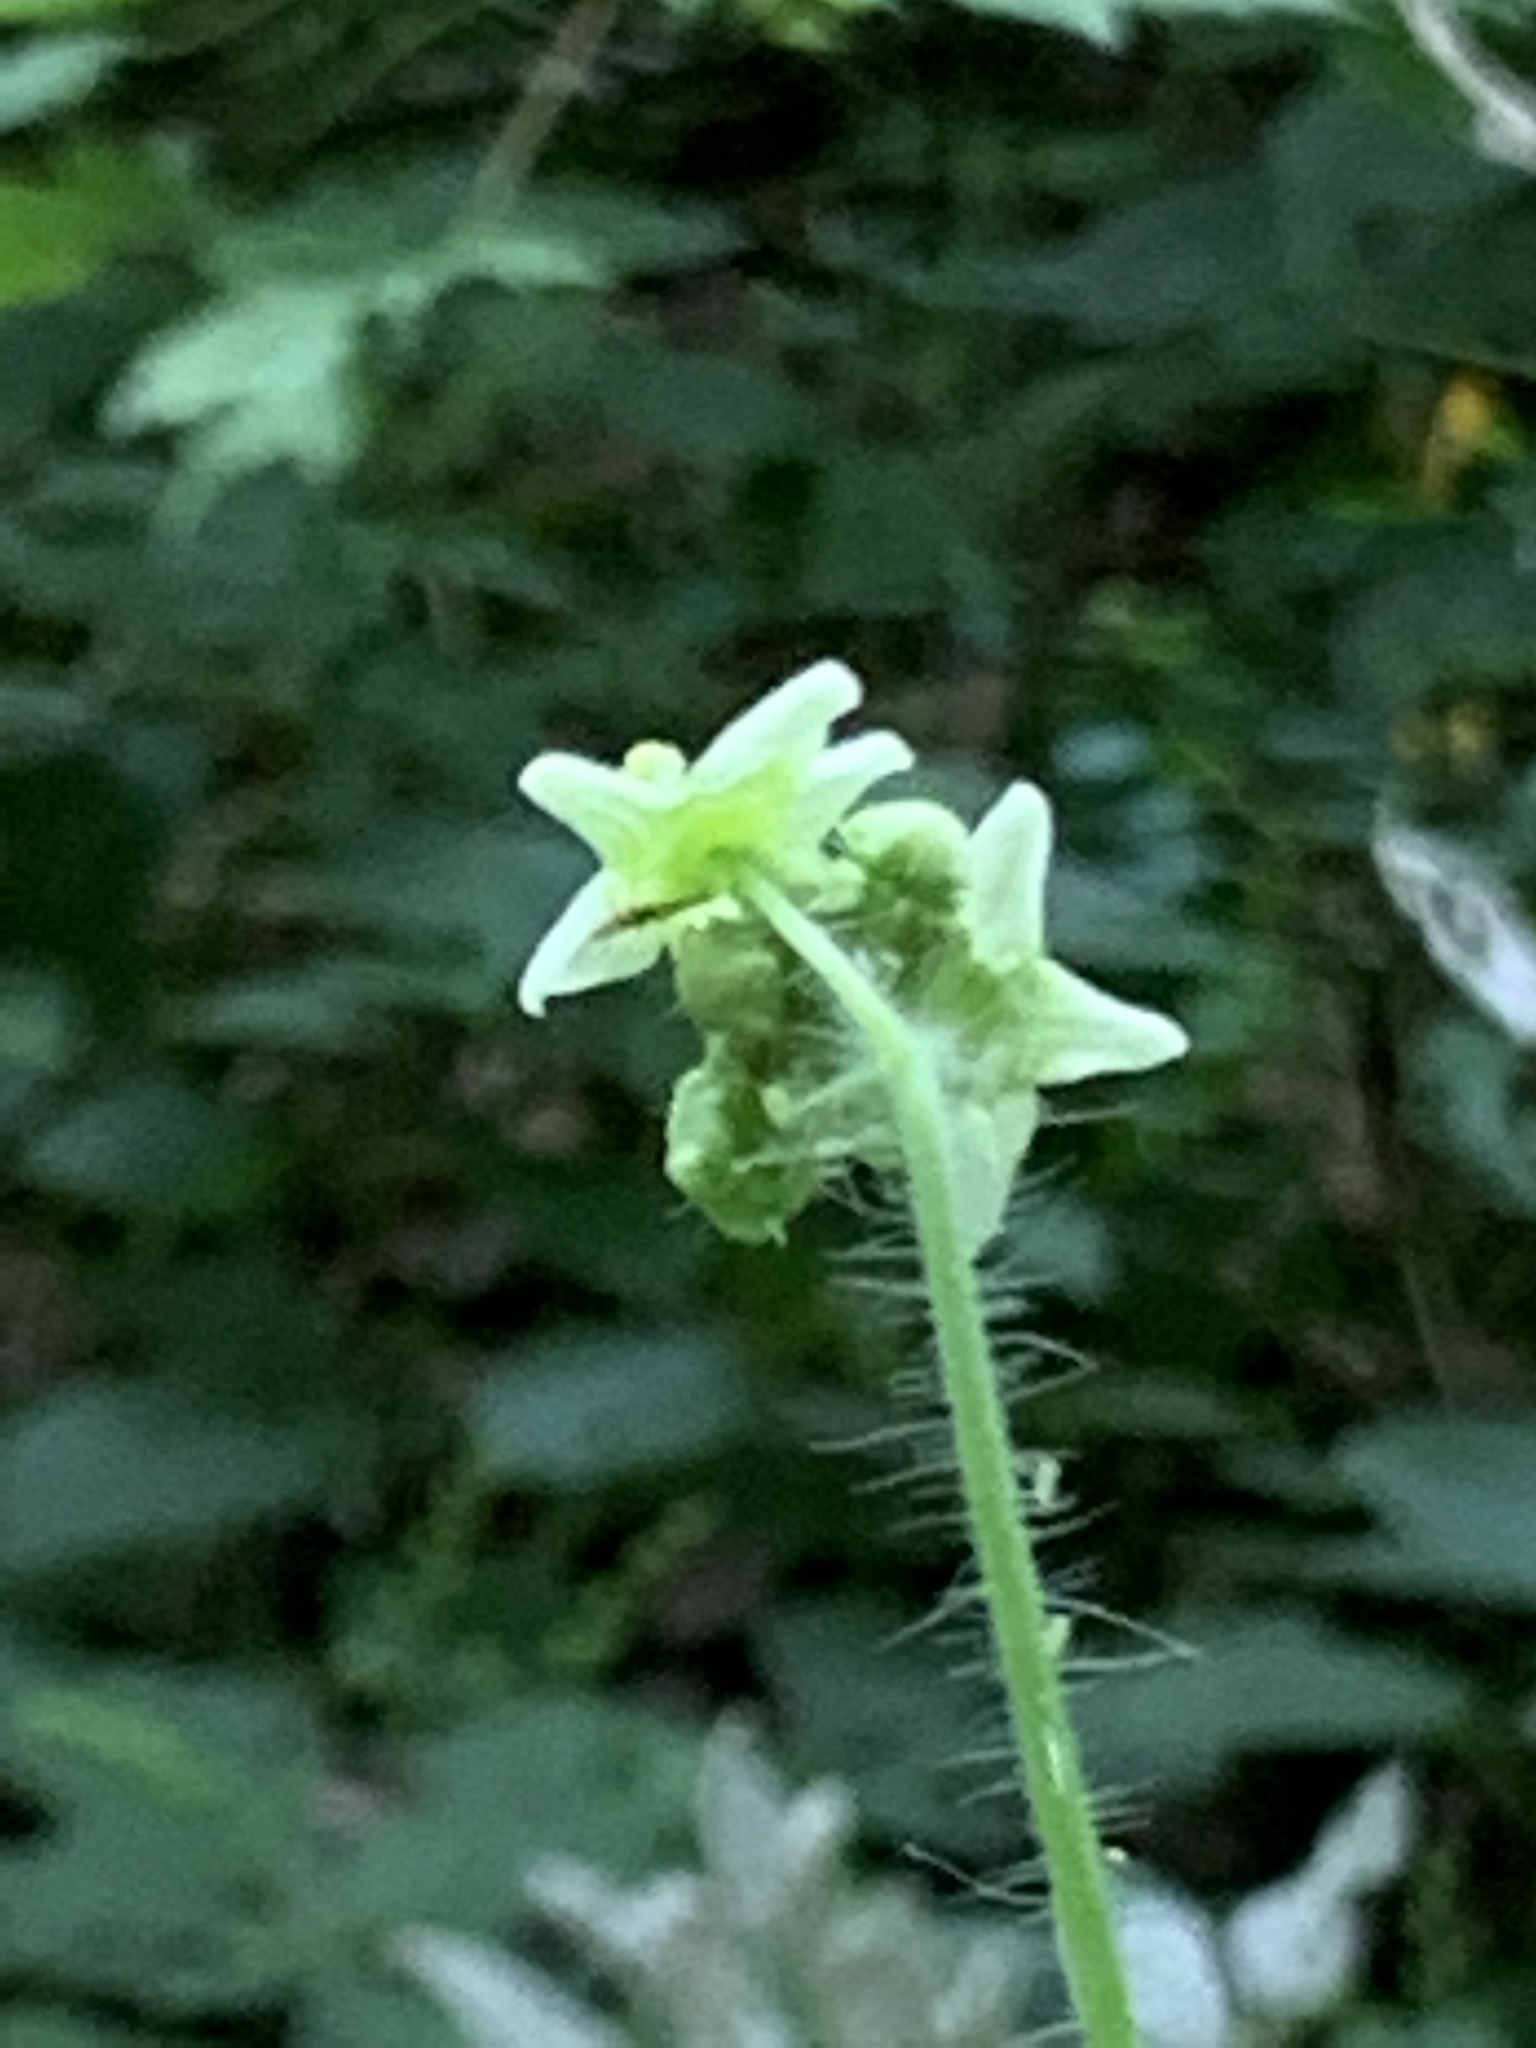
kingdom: Plantae
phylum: Tracheophyta
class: Magnoliopsida
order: Cucurbitales
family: Cucurbitaceae
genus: Sicyos
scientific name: Sicyos angulatus
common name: Angled burr cucumber
